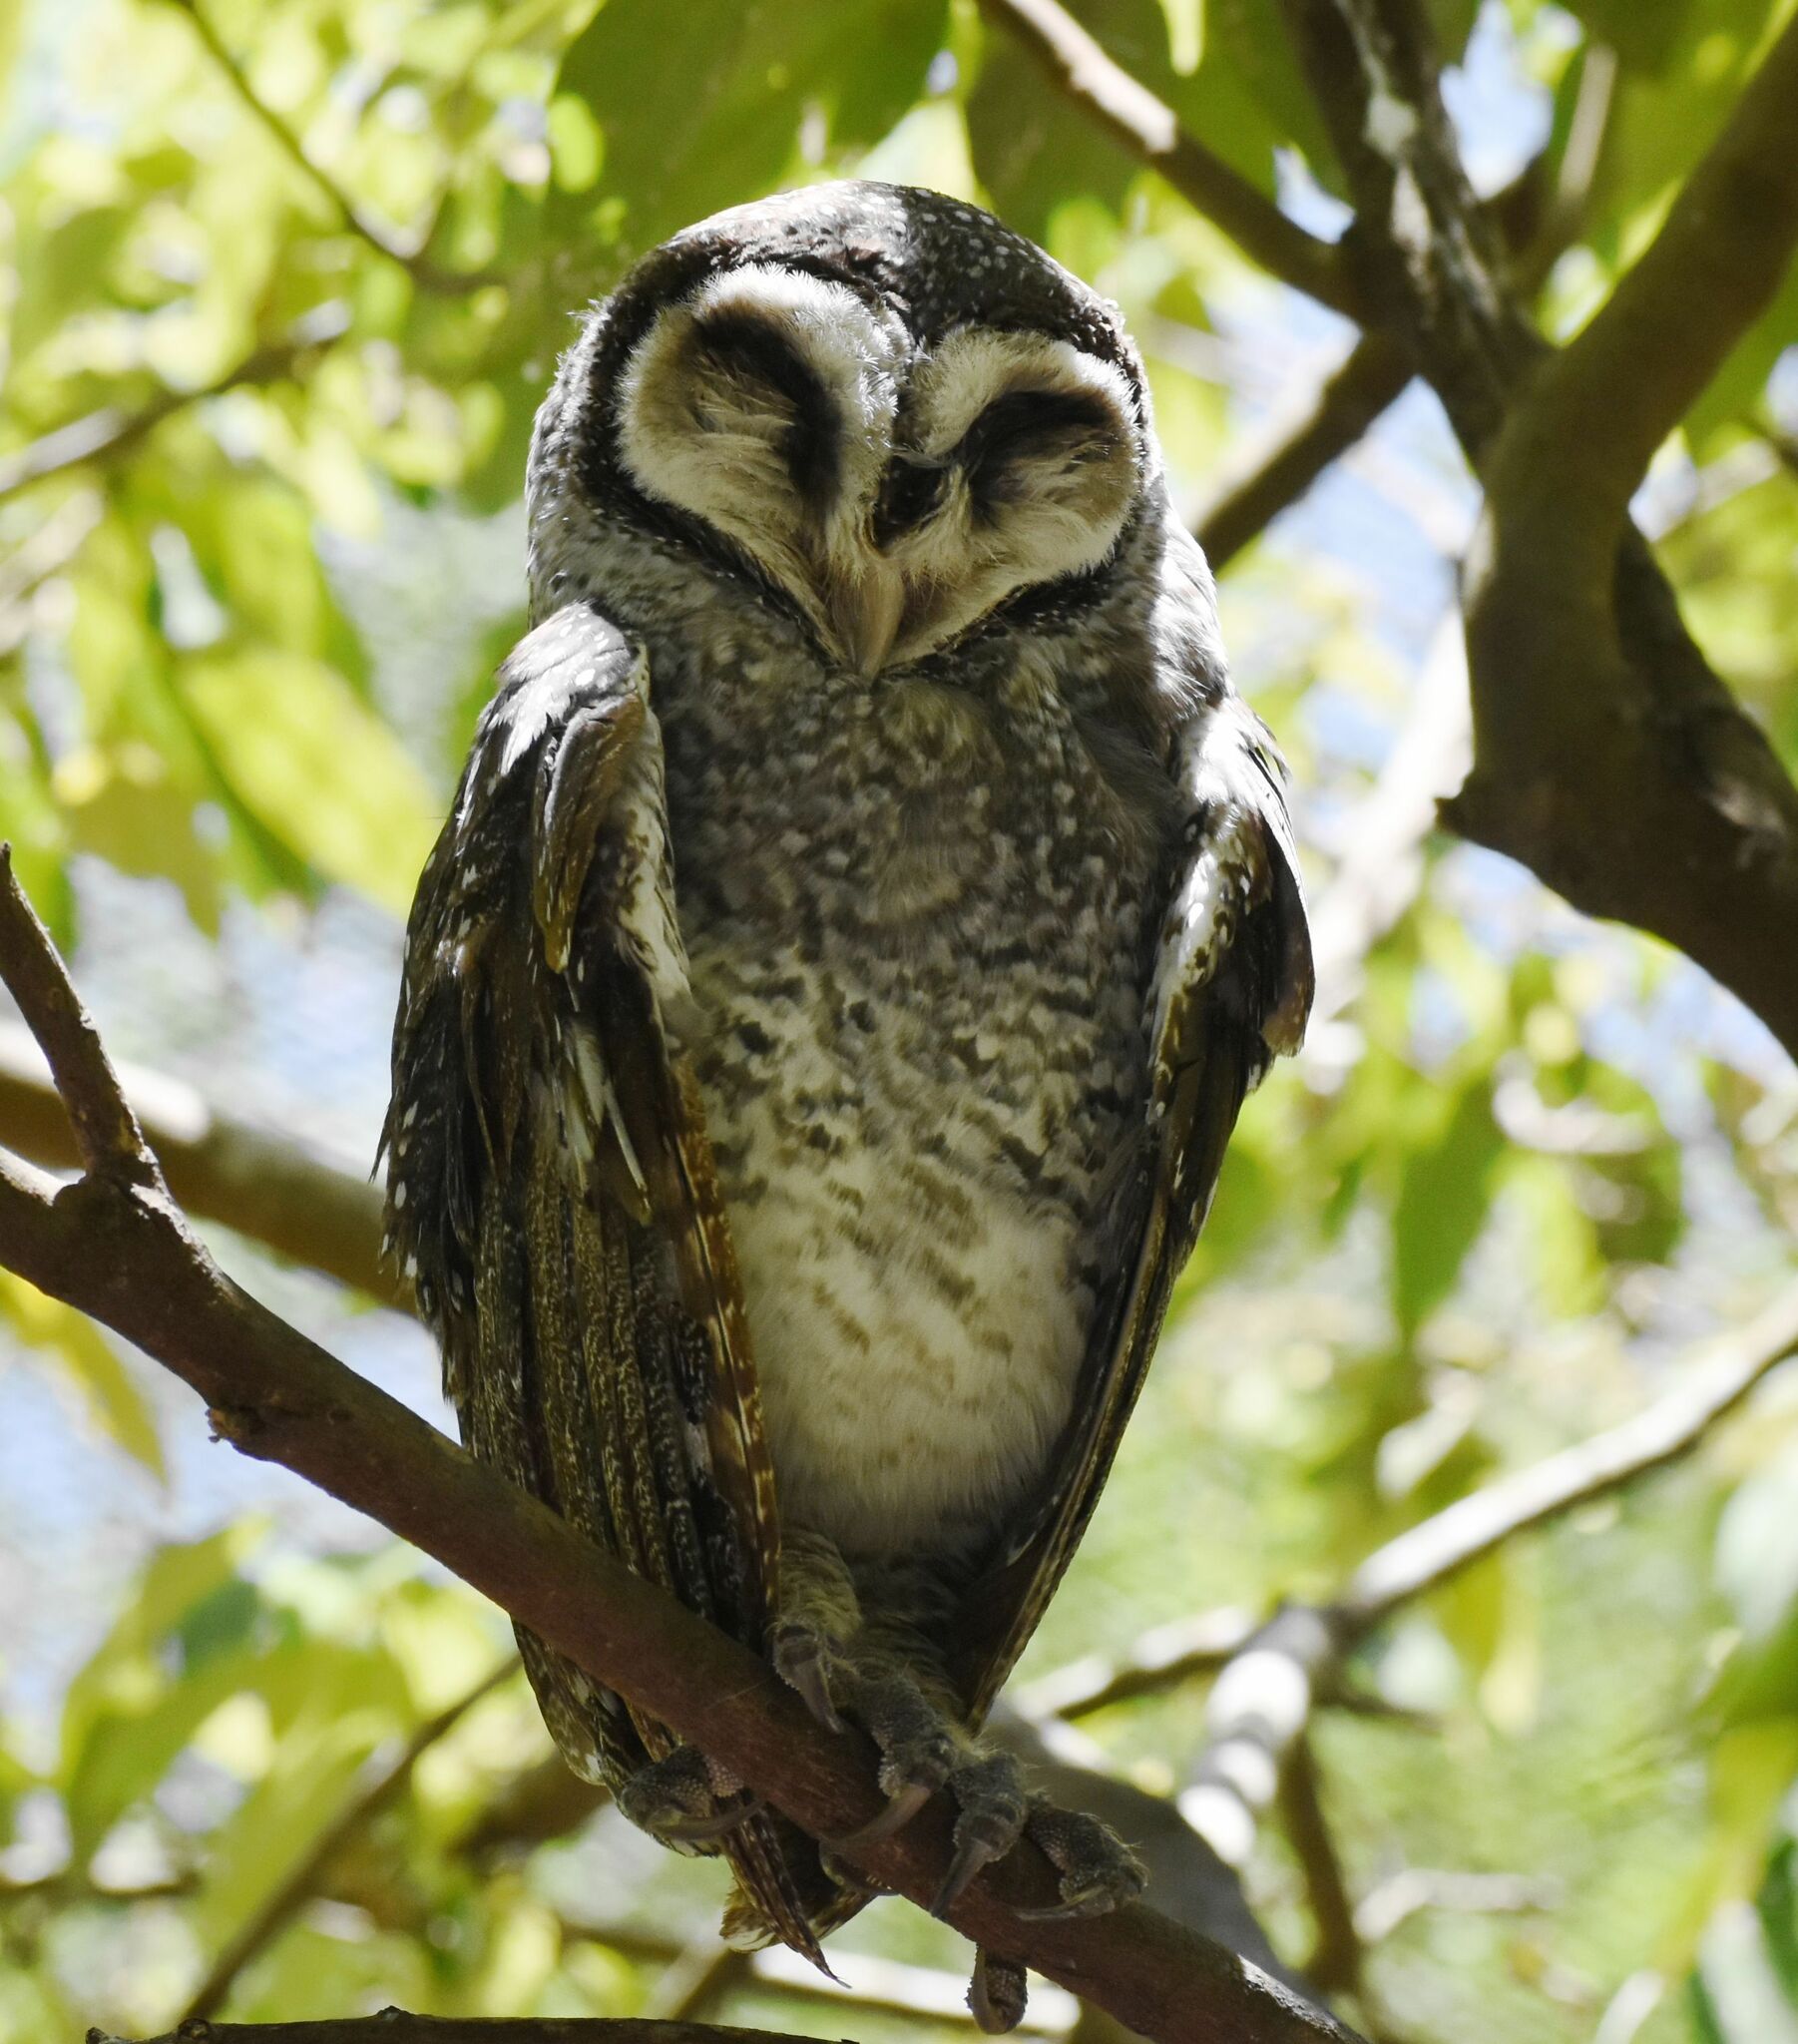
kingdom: Animalia
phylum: Chordata
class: Aves
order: Strigiformes
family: Tytonidae
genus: Tyto
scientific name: Tyto multipunctata
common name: Lesser sooty owl
